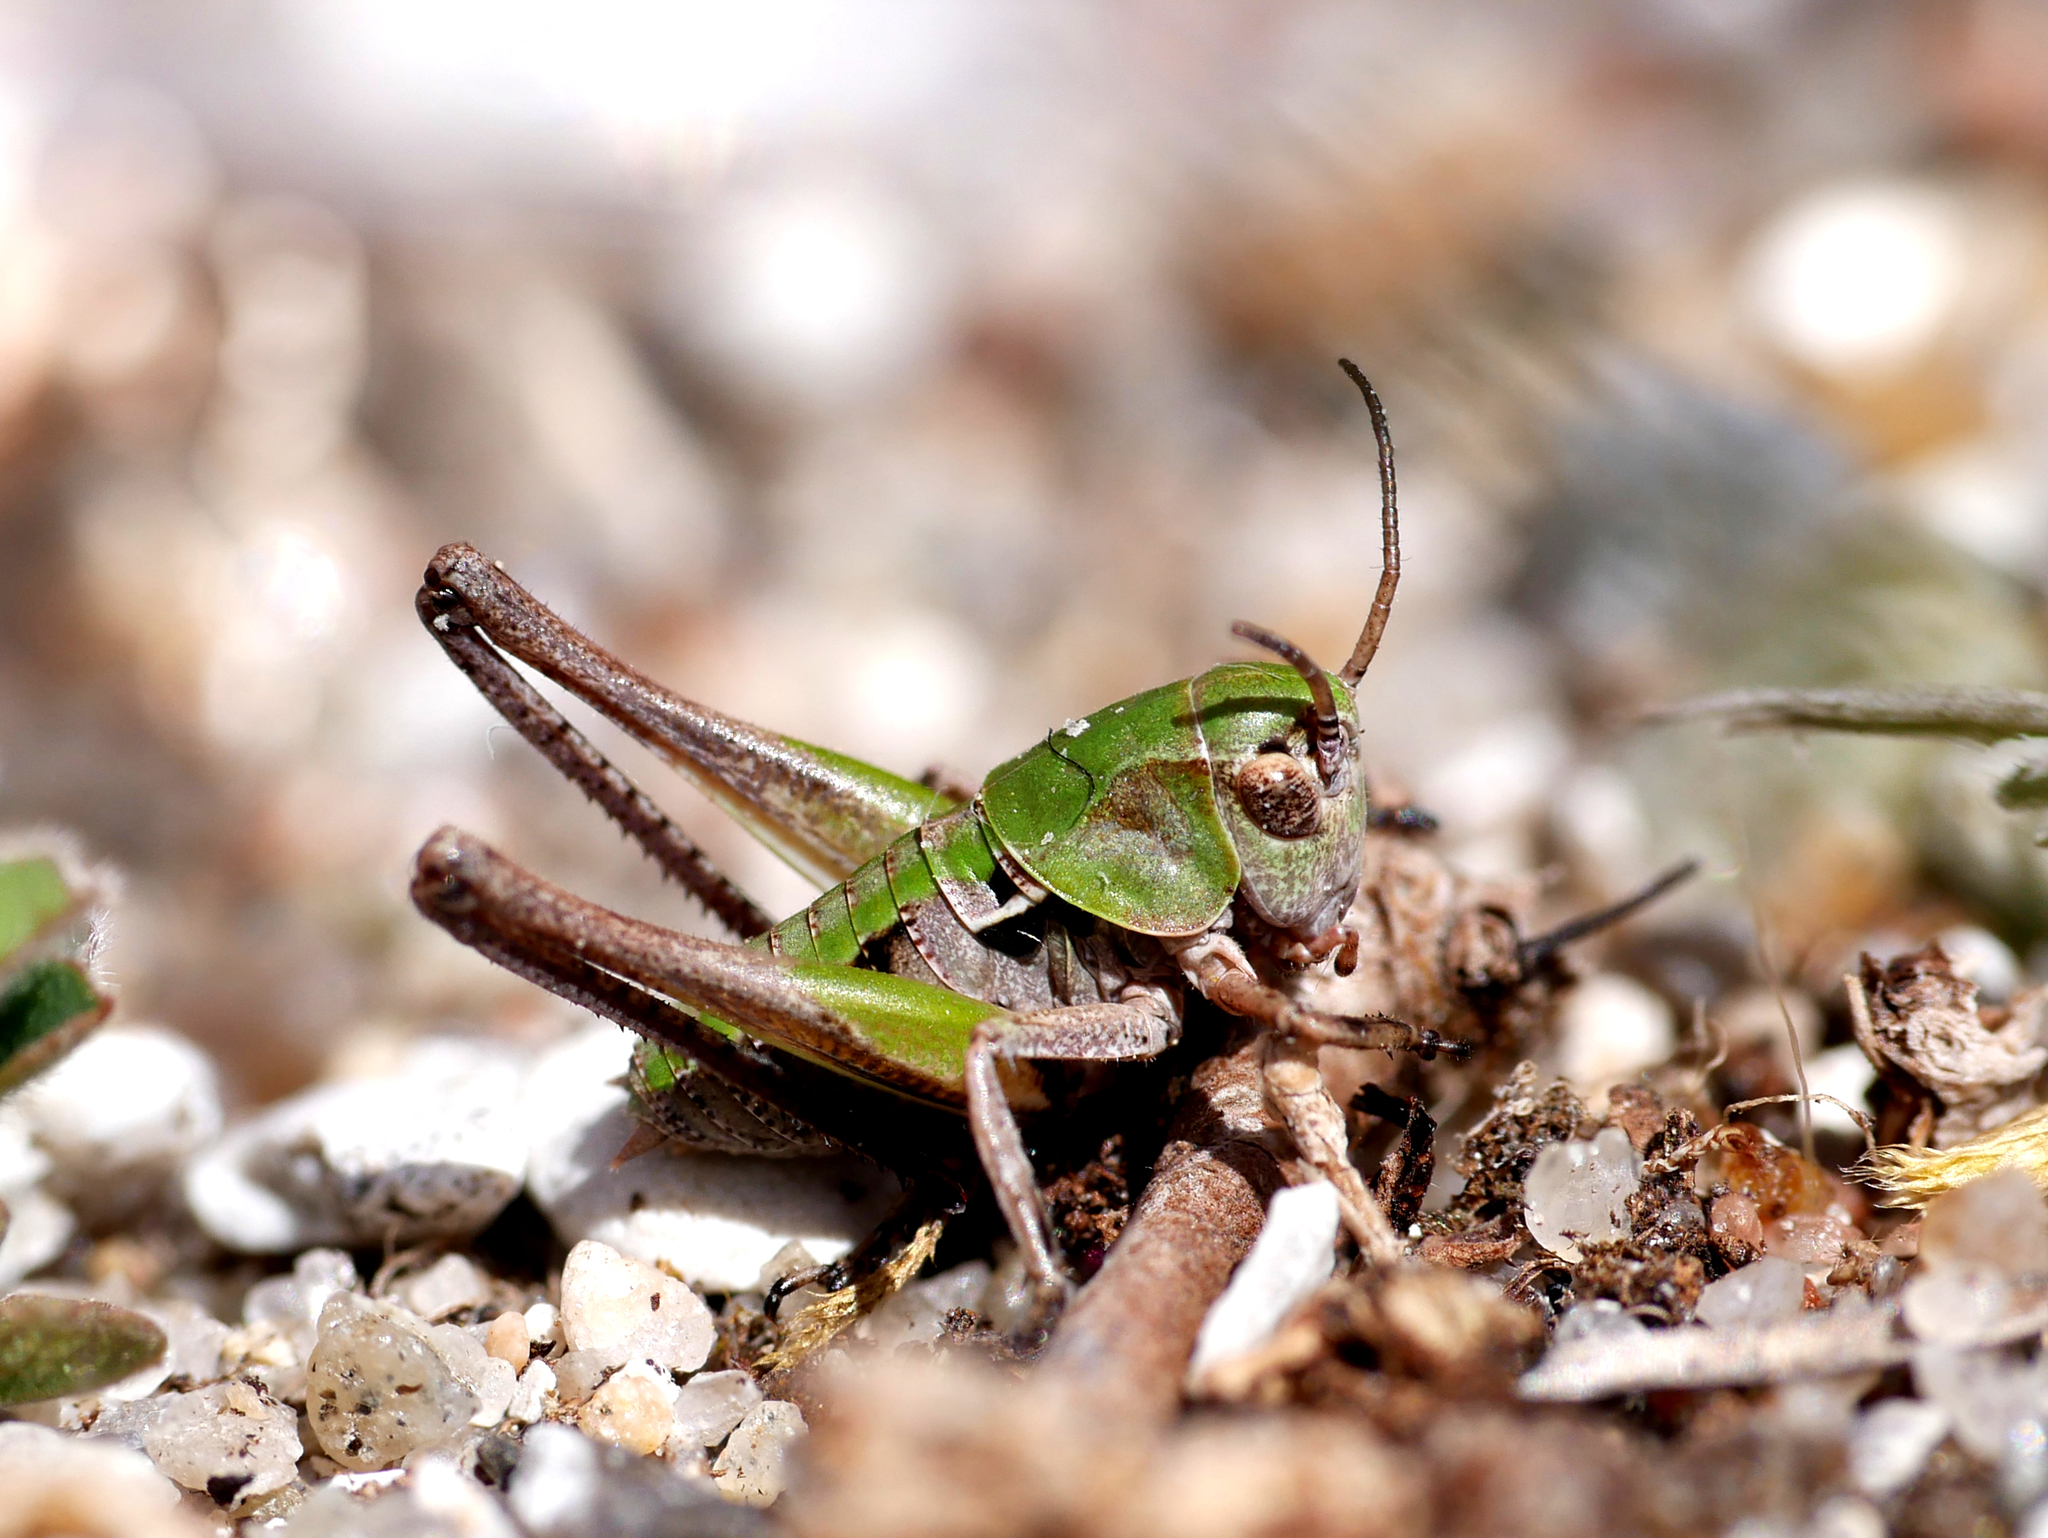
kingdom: Animalia
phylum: Arthropoda
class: Insecta
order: Orthoptera
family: Tettigoniidae
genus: Decticus
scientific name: Decticus verrucivorus
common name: Wart-biter
